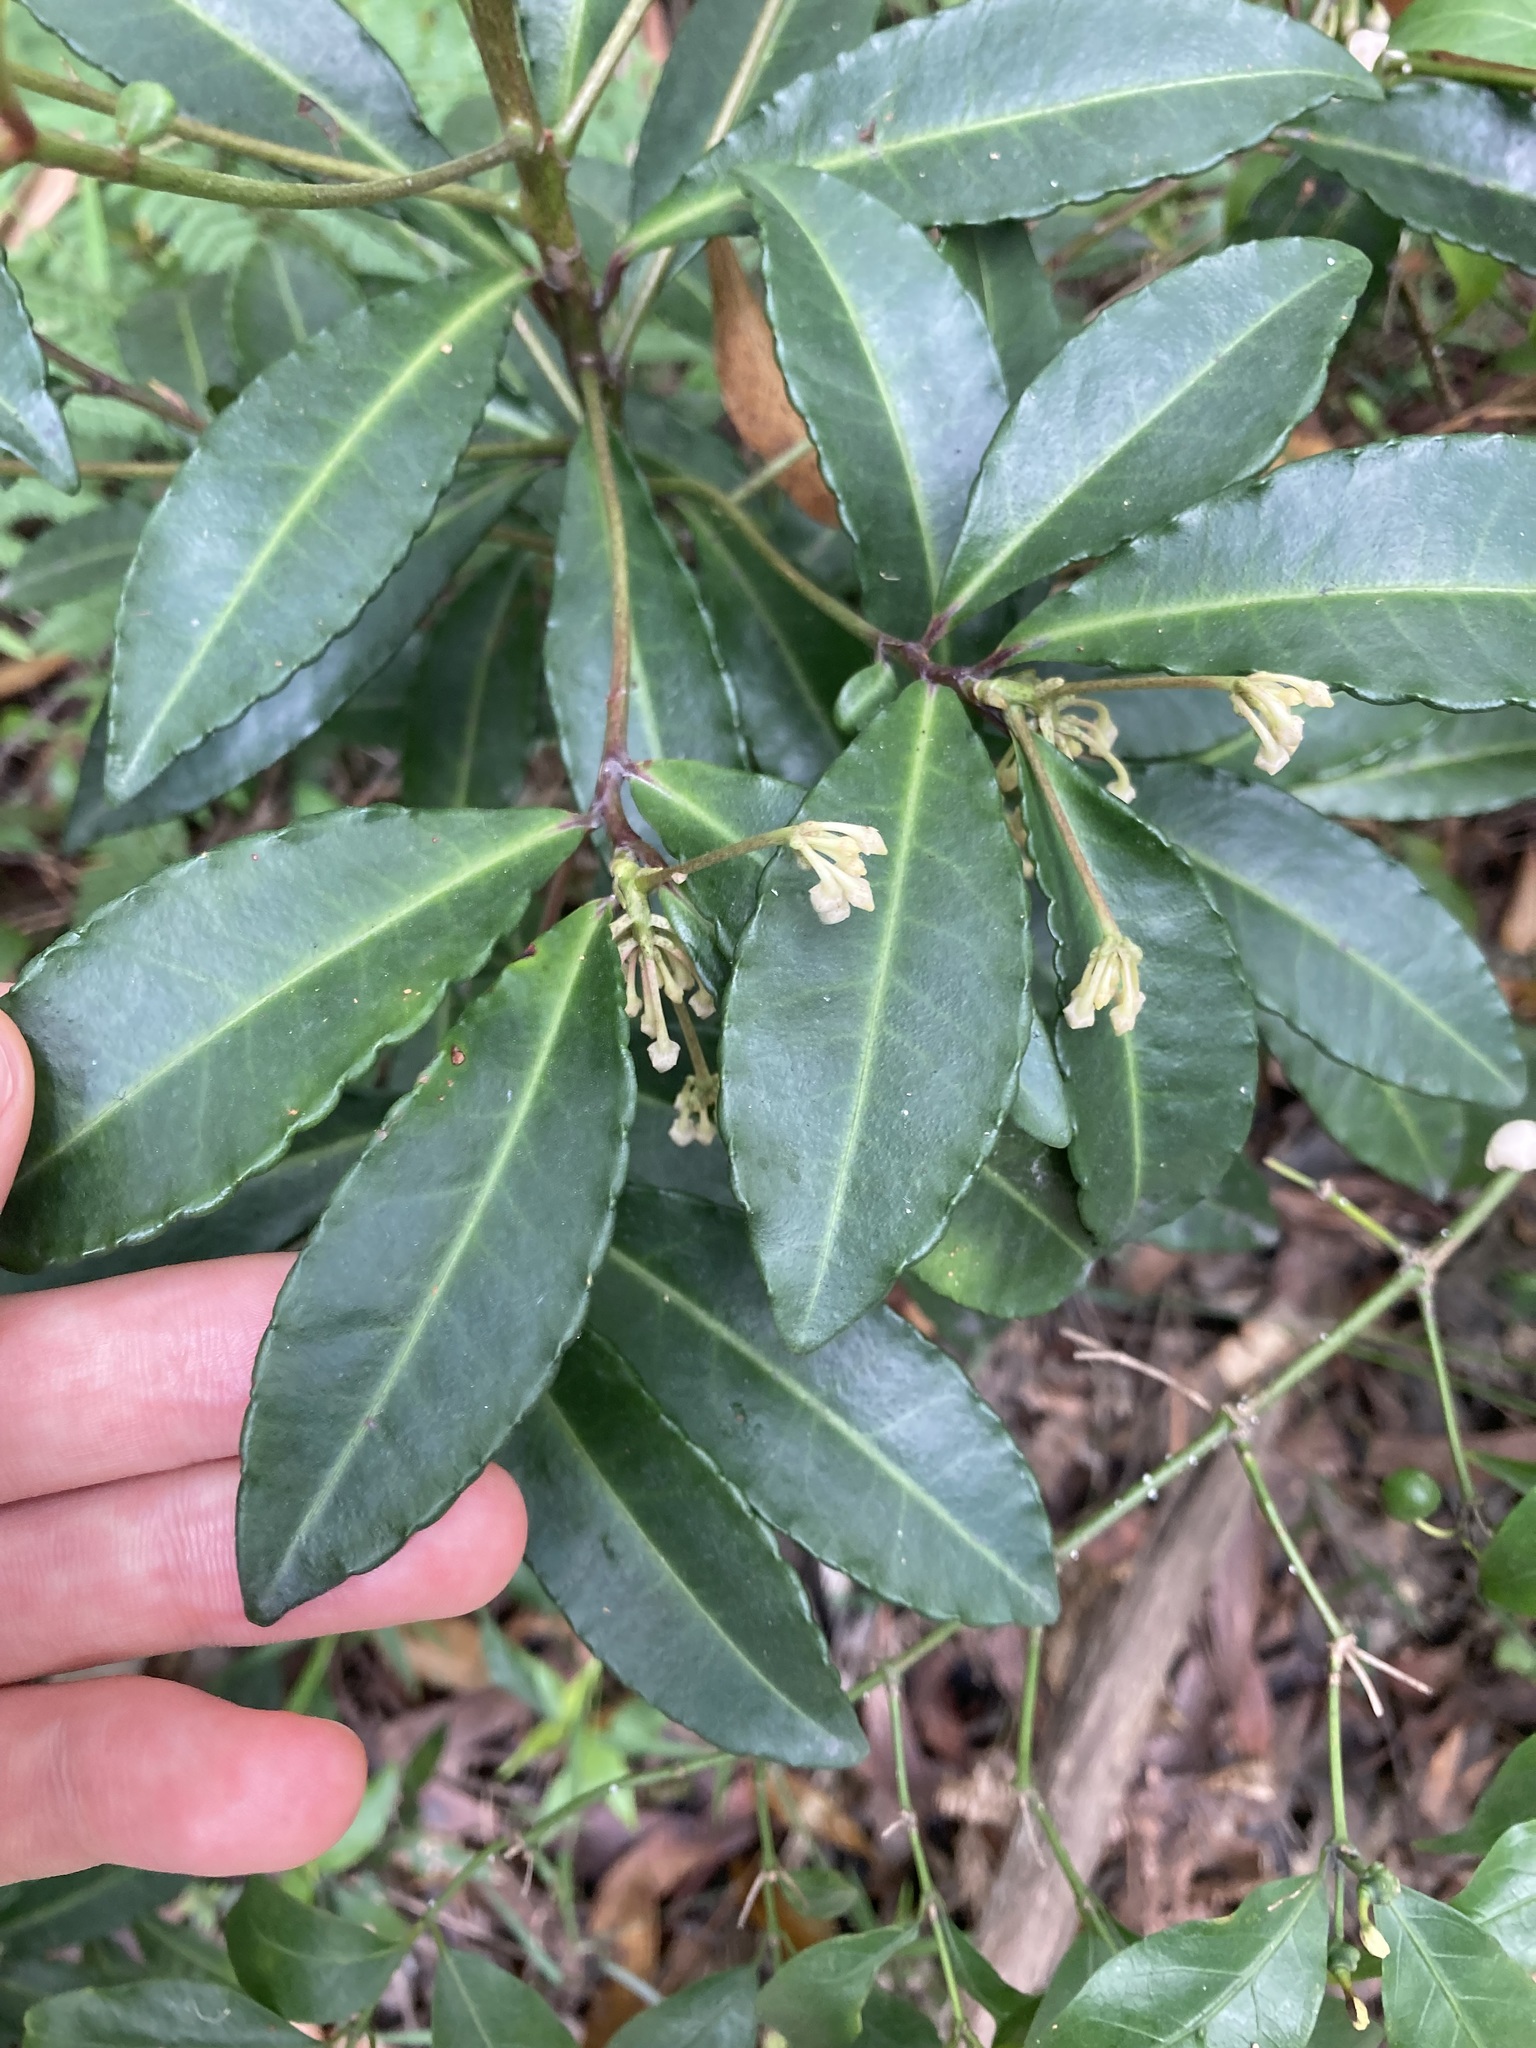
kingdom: Plantae
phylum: Tracheophyta
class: Magnoliopsida
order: Ericales
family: Primulaceae
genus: Ardisia
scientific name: Ardisia crenata
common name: Hen's eyes
